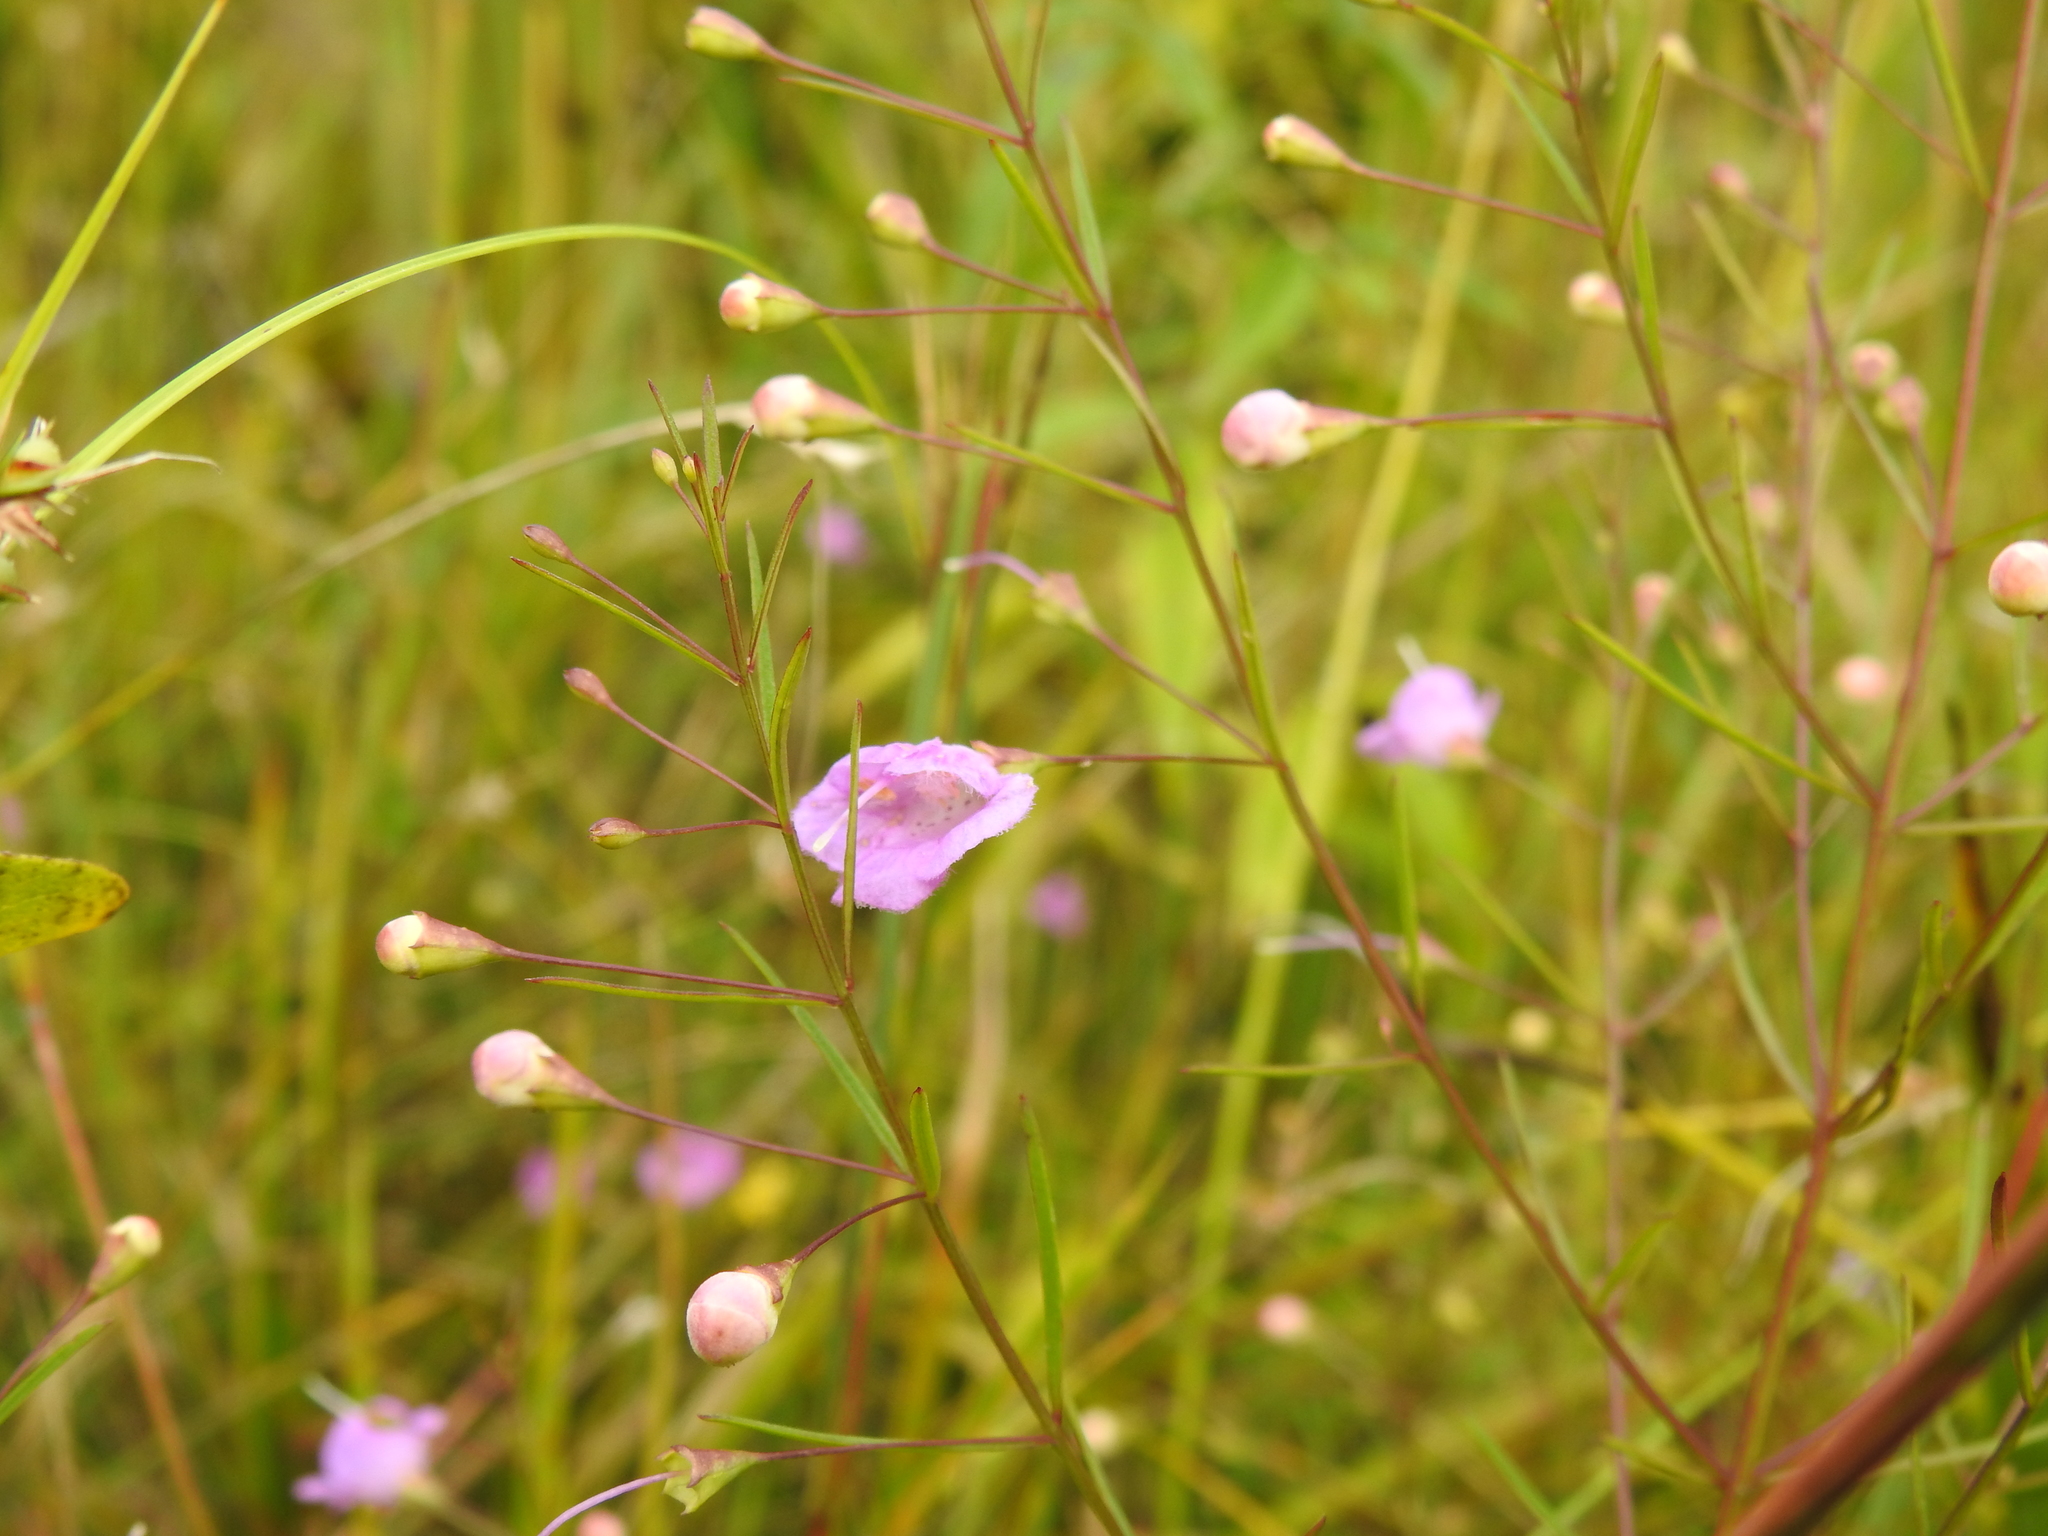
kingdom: Plantae
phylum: Tracheophyta
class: Magnoliopsida
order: Lamiales
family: Orobanchaceae
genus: Agalinis
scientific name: Agalinis tenuifolia
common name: Slender agalinis
